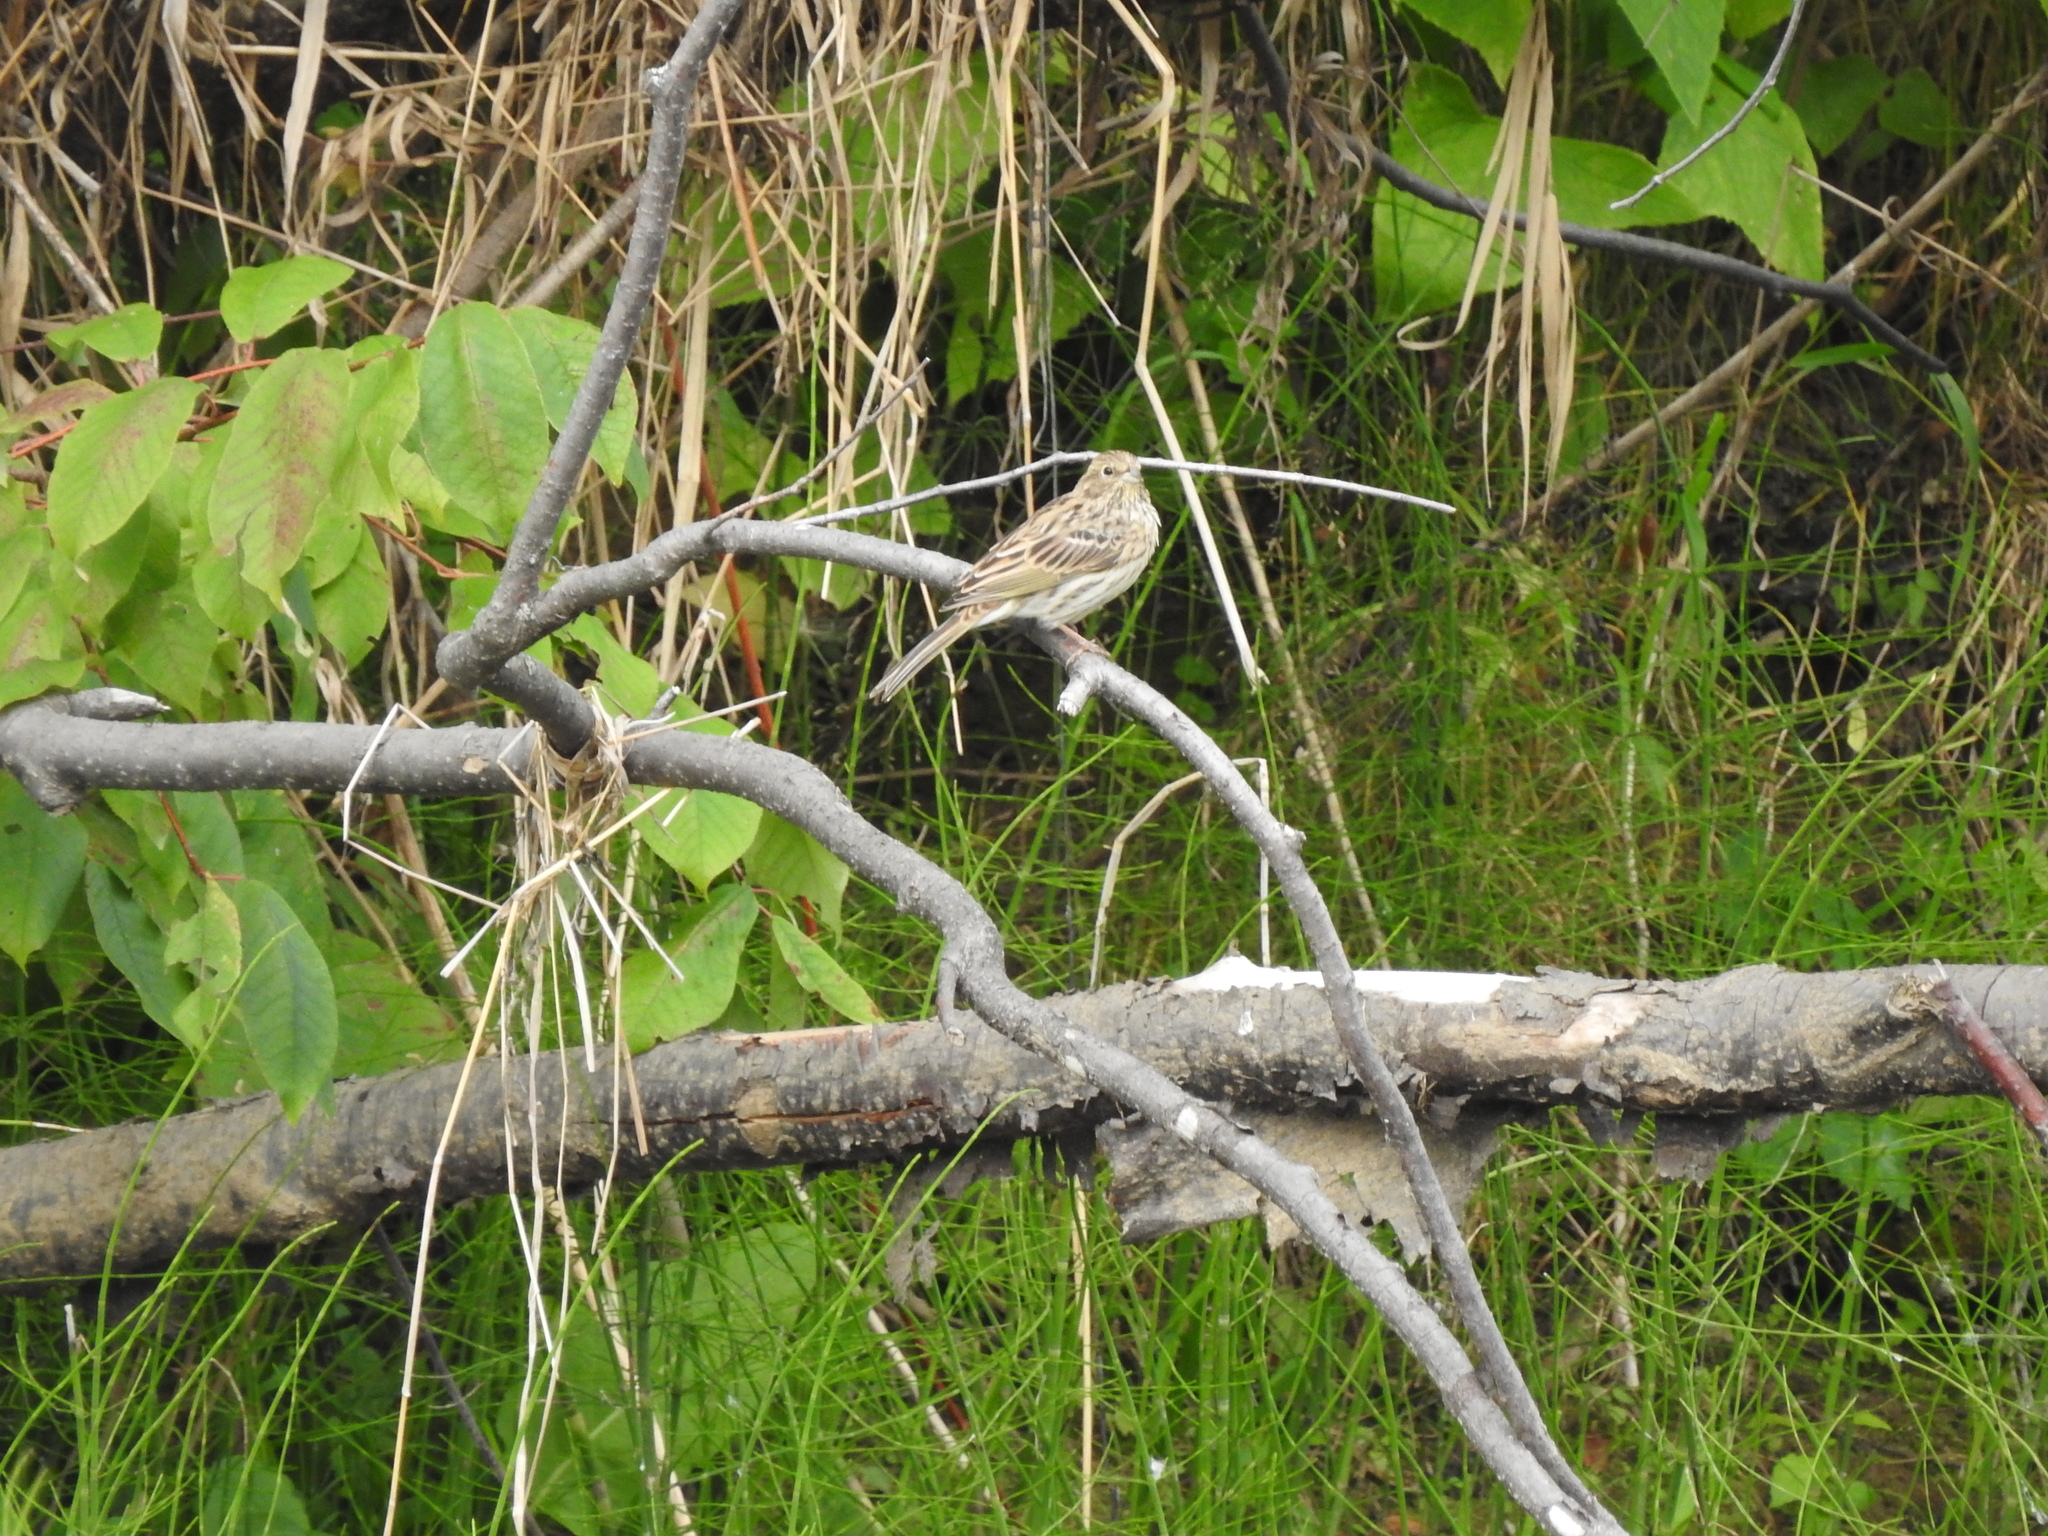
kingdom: Animalia
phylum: Chordata
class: Aves
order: Passeriformes
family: Emberizidae
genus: Emberiza
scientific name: Emberiza citrinella
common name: Yellowhammer
